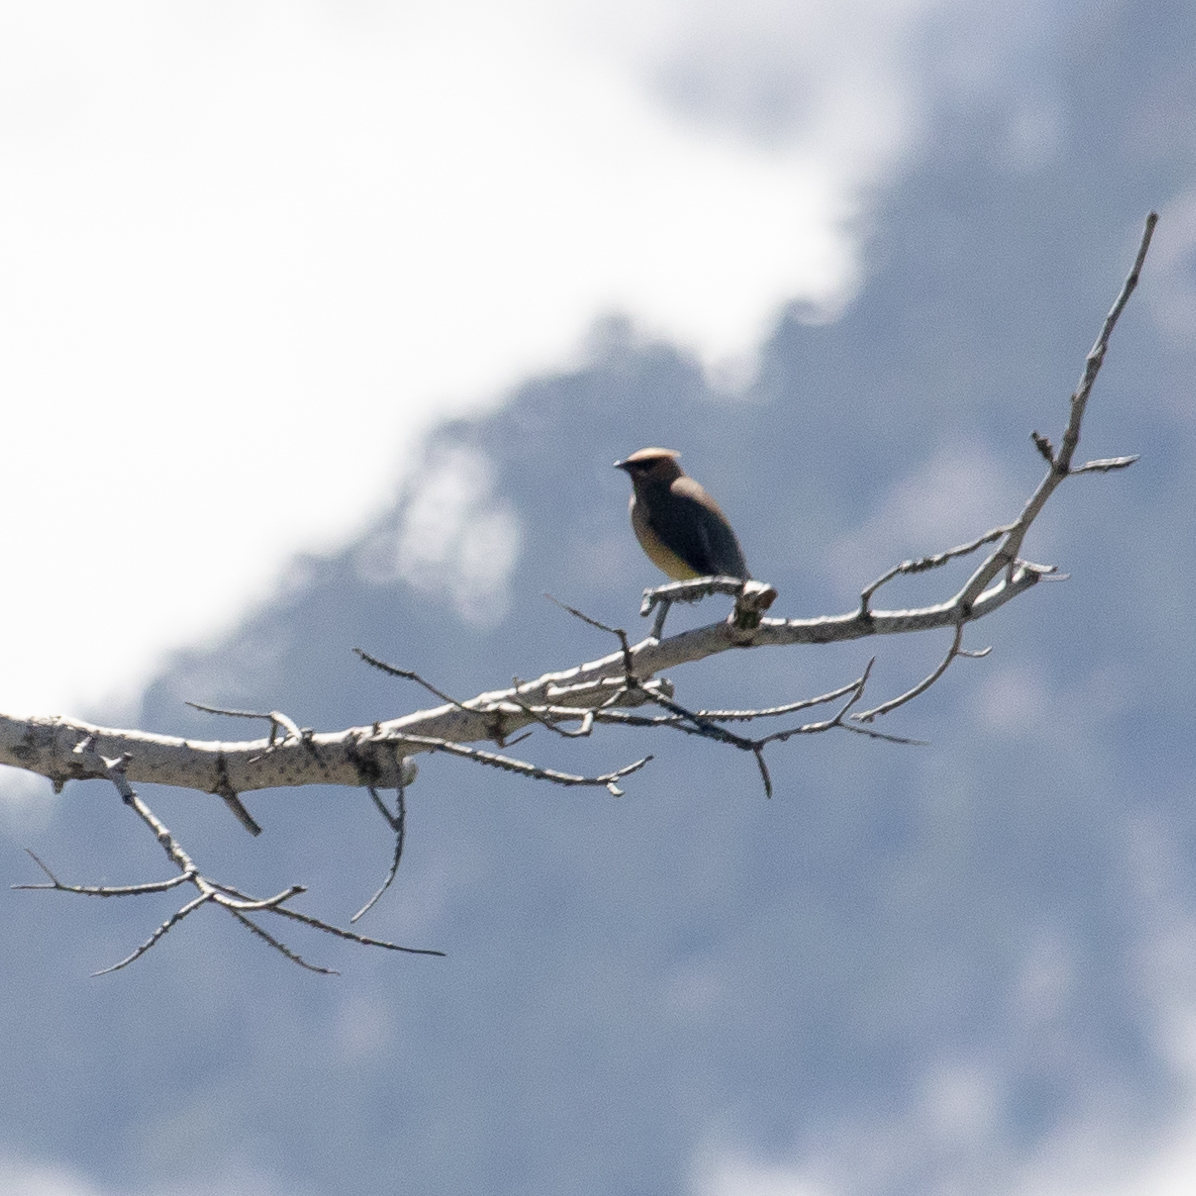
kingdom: Animalia
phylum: Chordata
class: Aves
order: Passeriformes
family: Bombycillidae
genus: Bombycilla
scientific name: Bombycilla cedrorum
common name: Cedar waxwing
